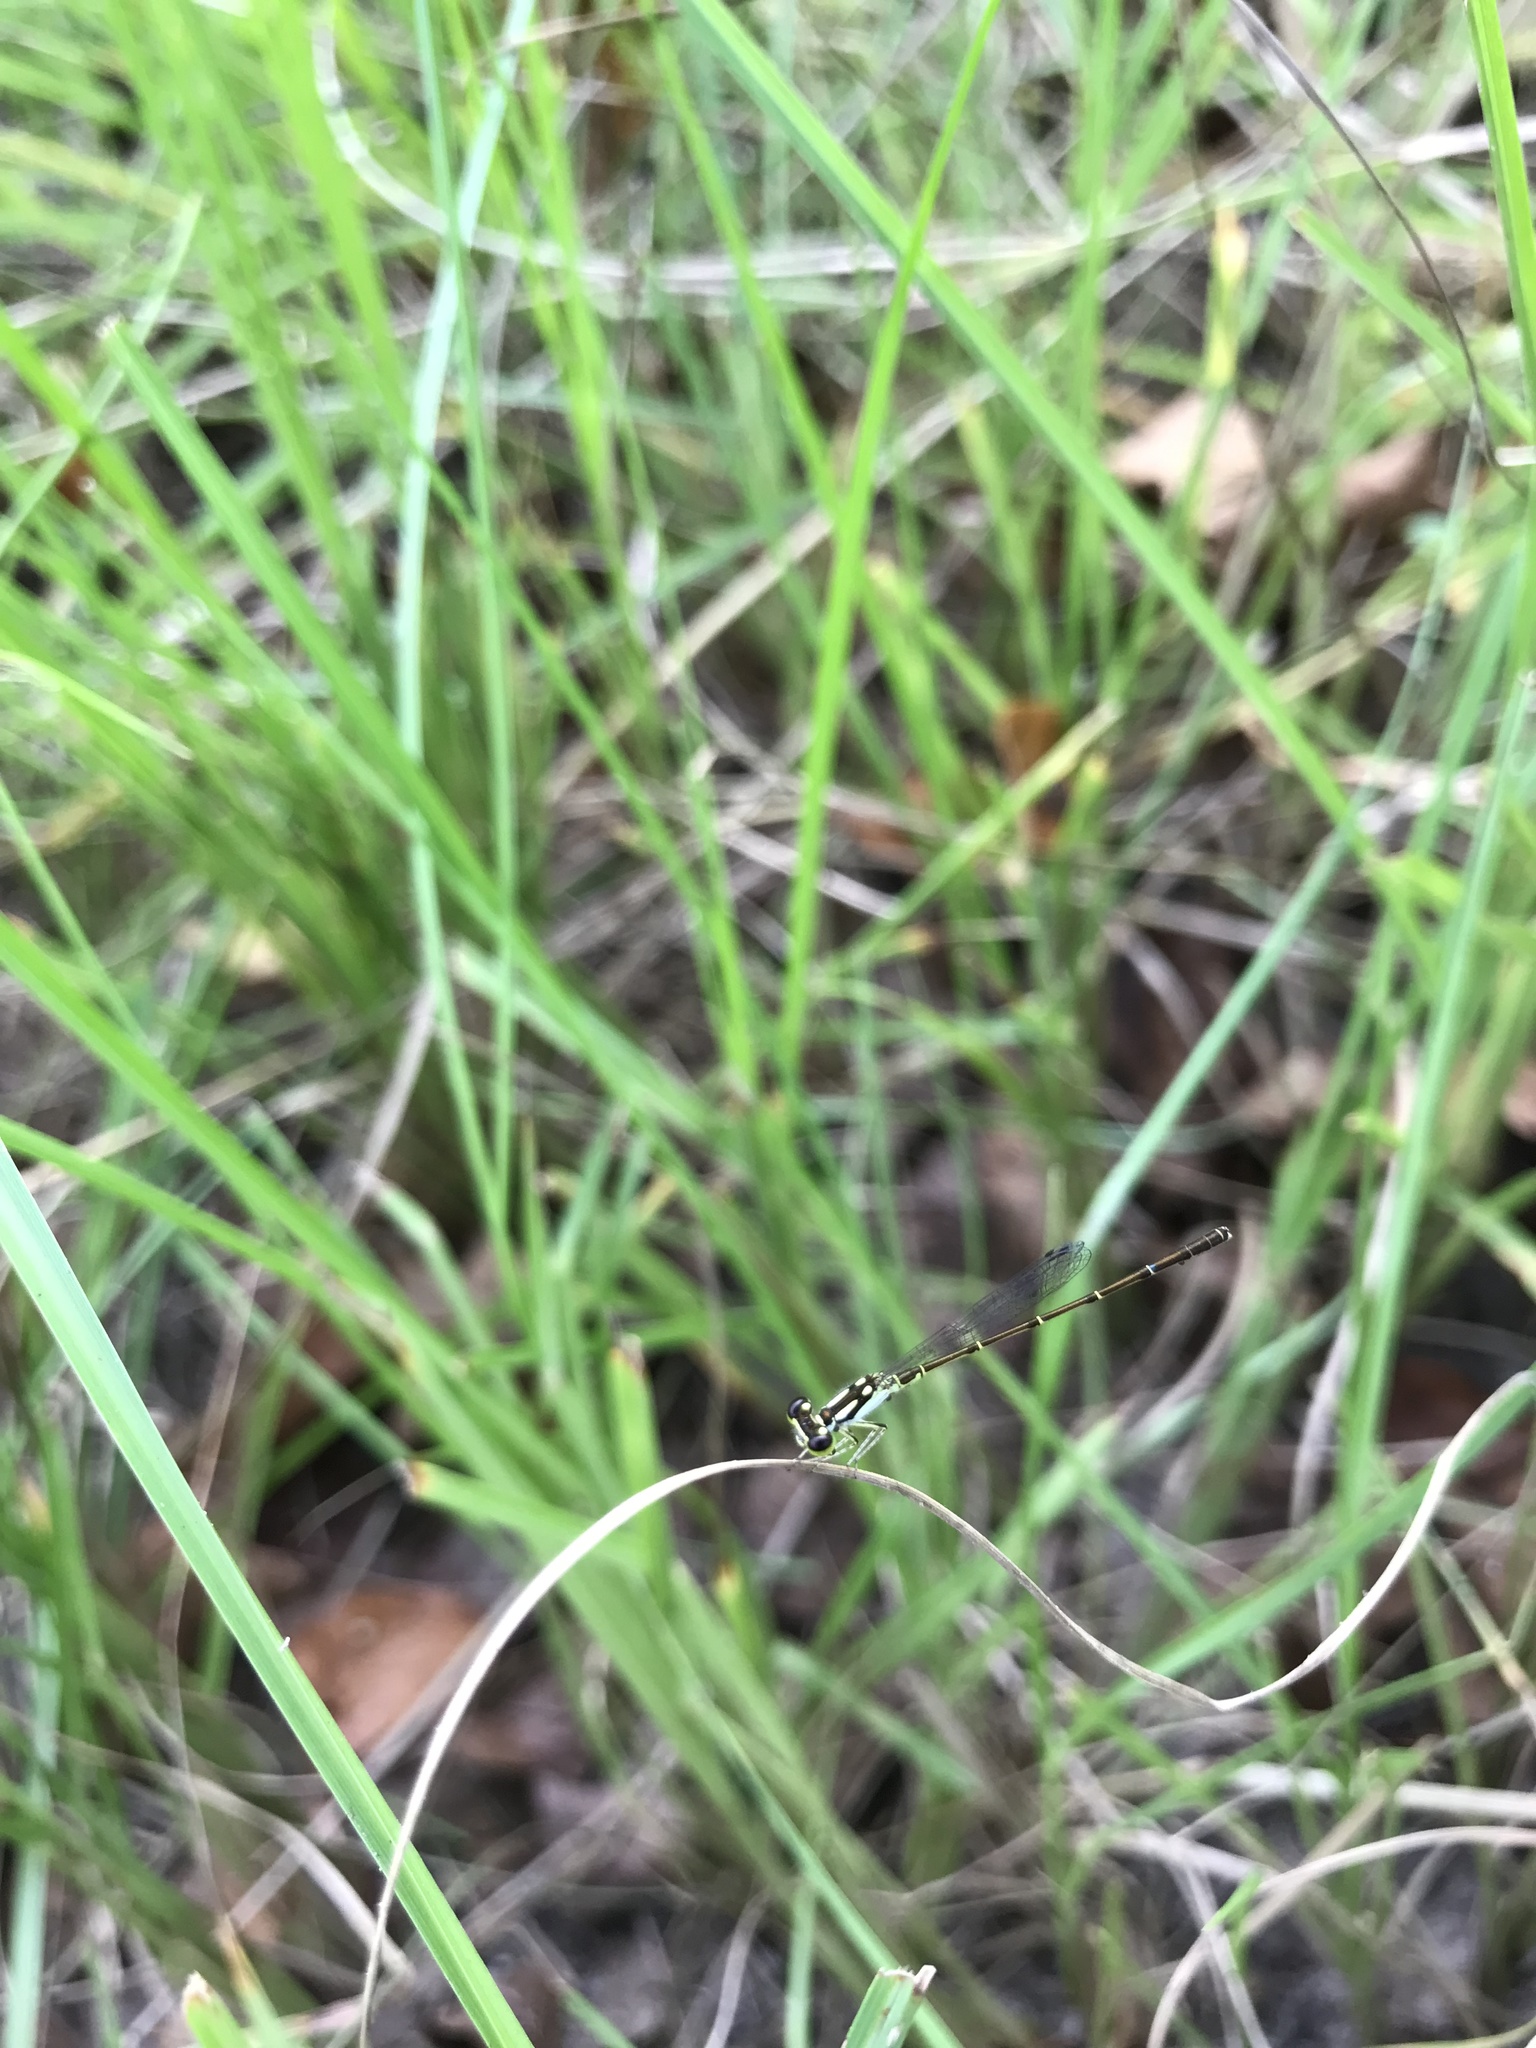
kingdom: Animalia
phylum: Arthropoda
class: Insecta
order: Odonata
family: Coenagrionidae
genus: Ischnura
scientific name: Ischnura posita
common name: Fragile forktail
